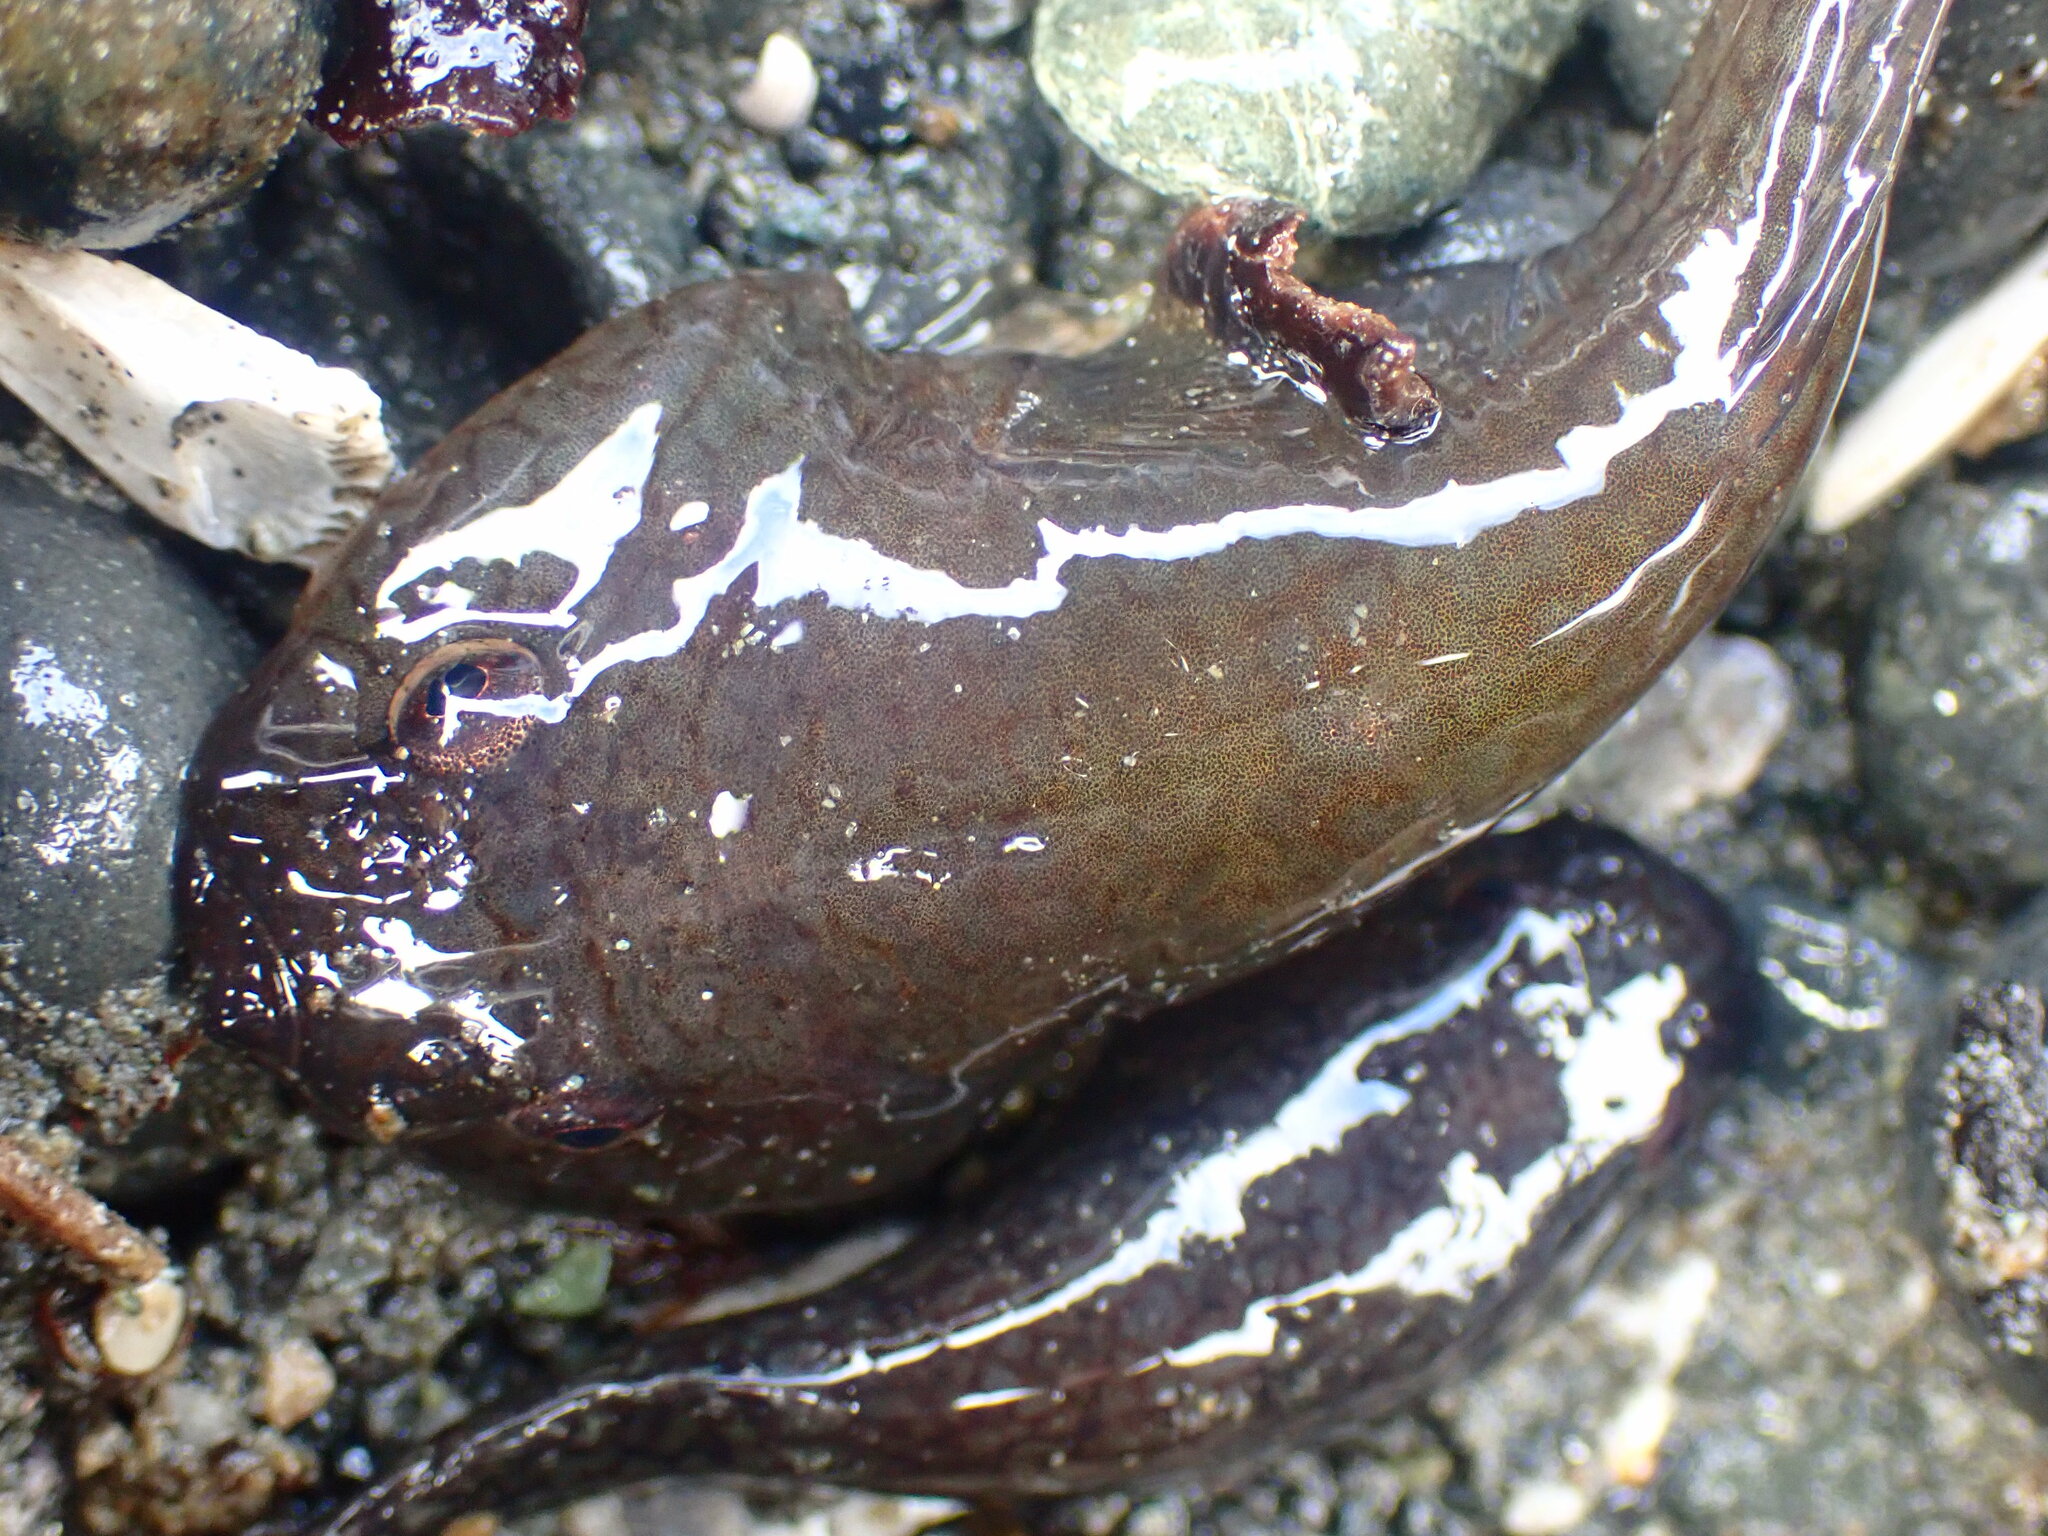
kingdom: Animalia
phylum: Chordata
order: Gobiesociformes
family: Gobiesocidae
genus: Gobiesox
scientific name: Gobiesox maeandricus
